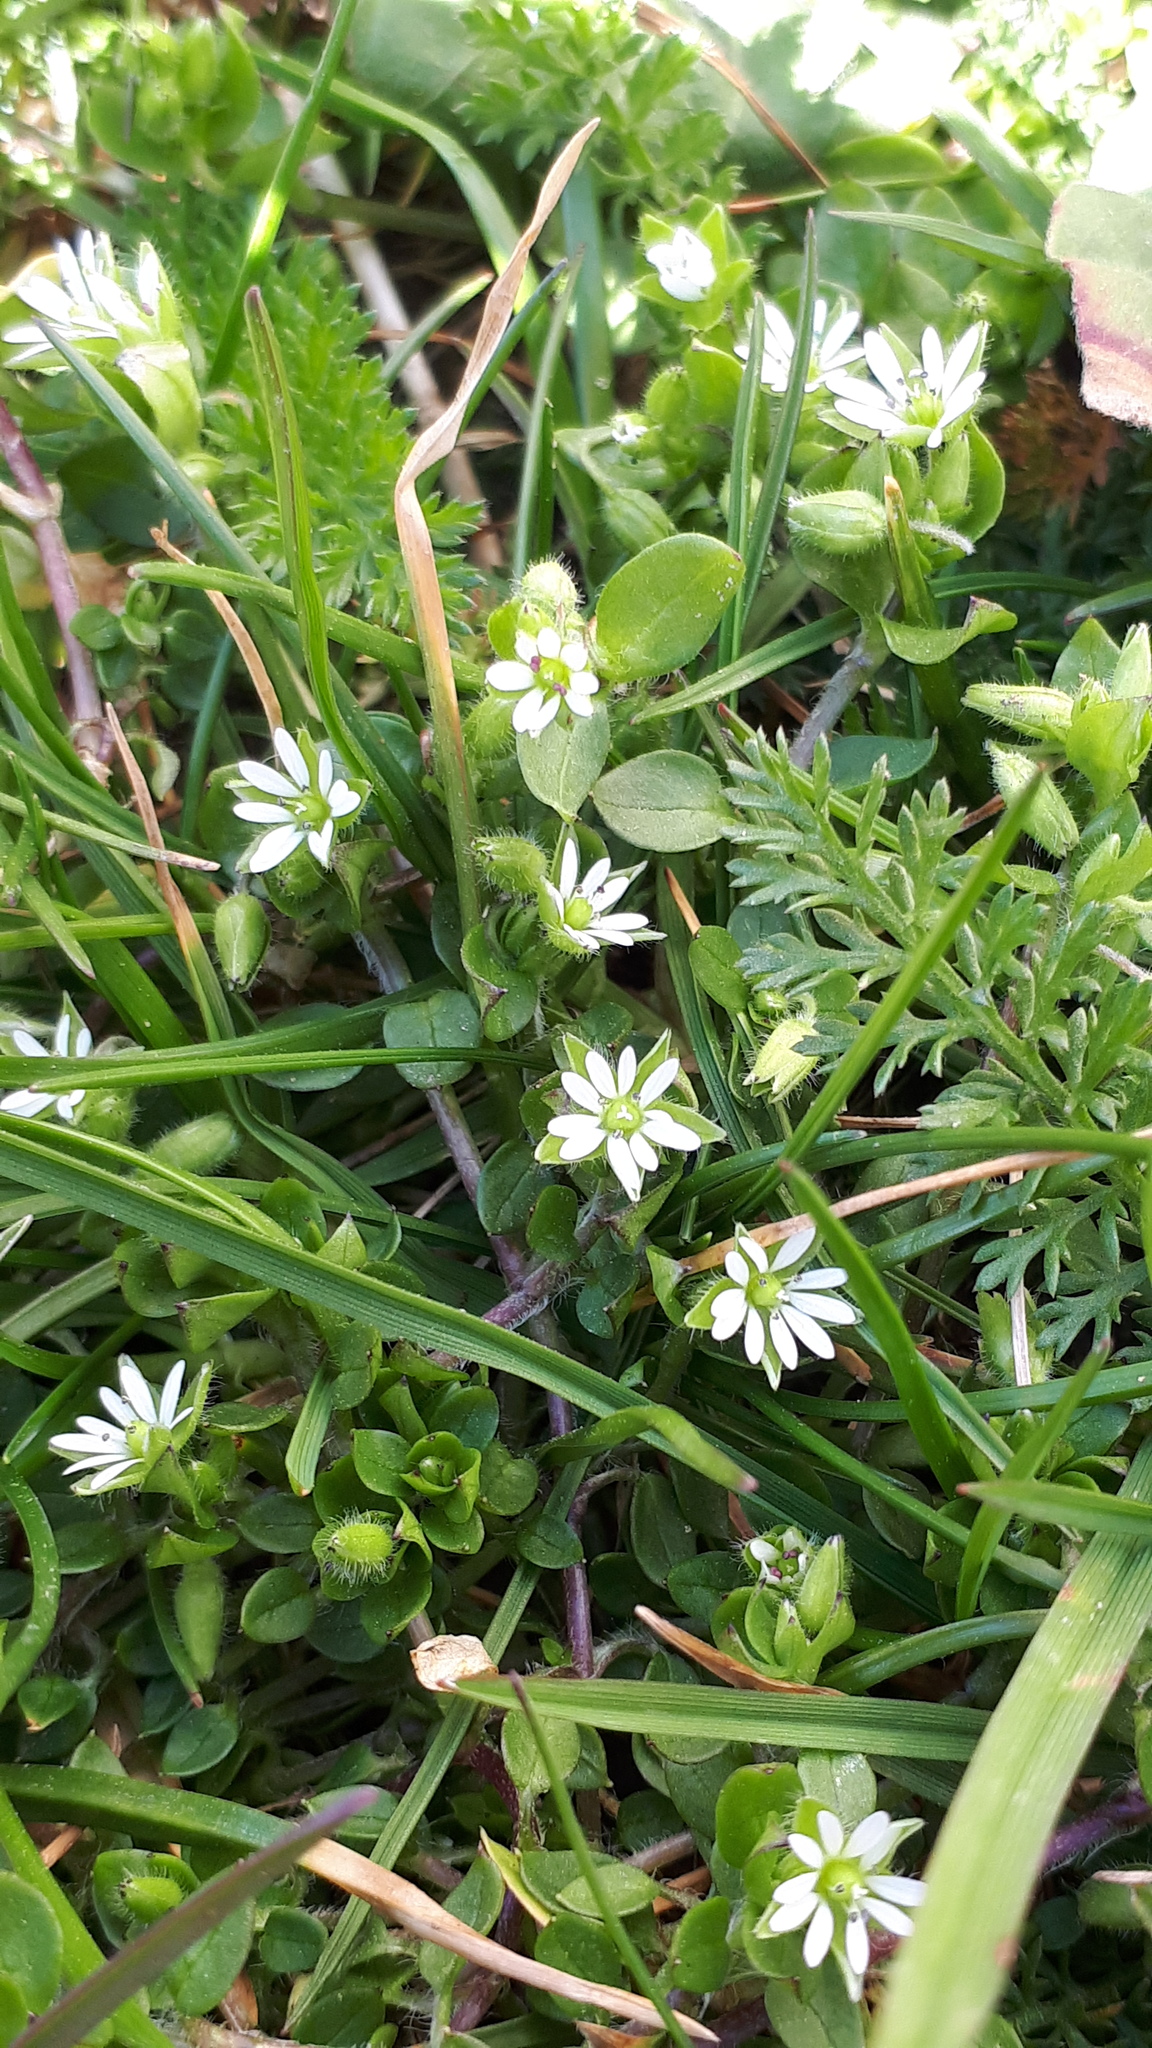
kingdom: Plantae
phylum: Tracheophyta
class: Magnoliopsida
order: Caryophyllales
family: Caryophyllaceae
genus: Stellaria
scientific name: Stellaria media
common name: Common chickweed
